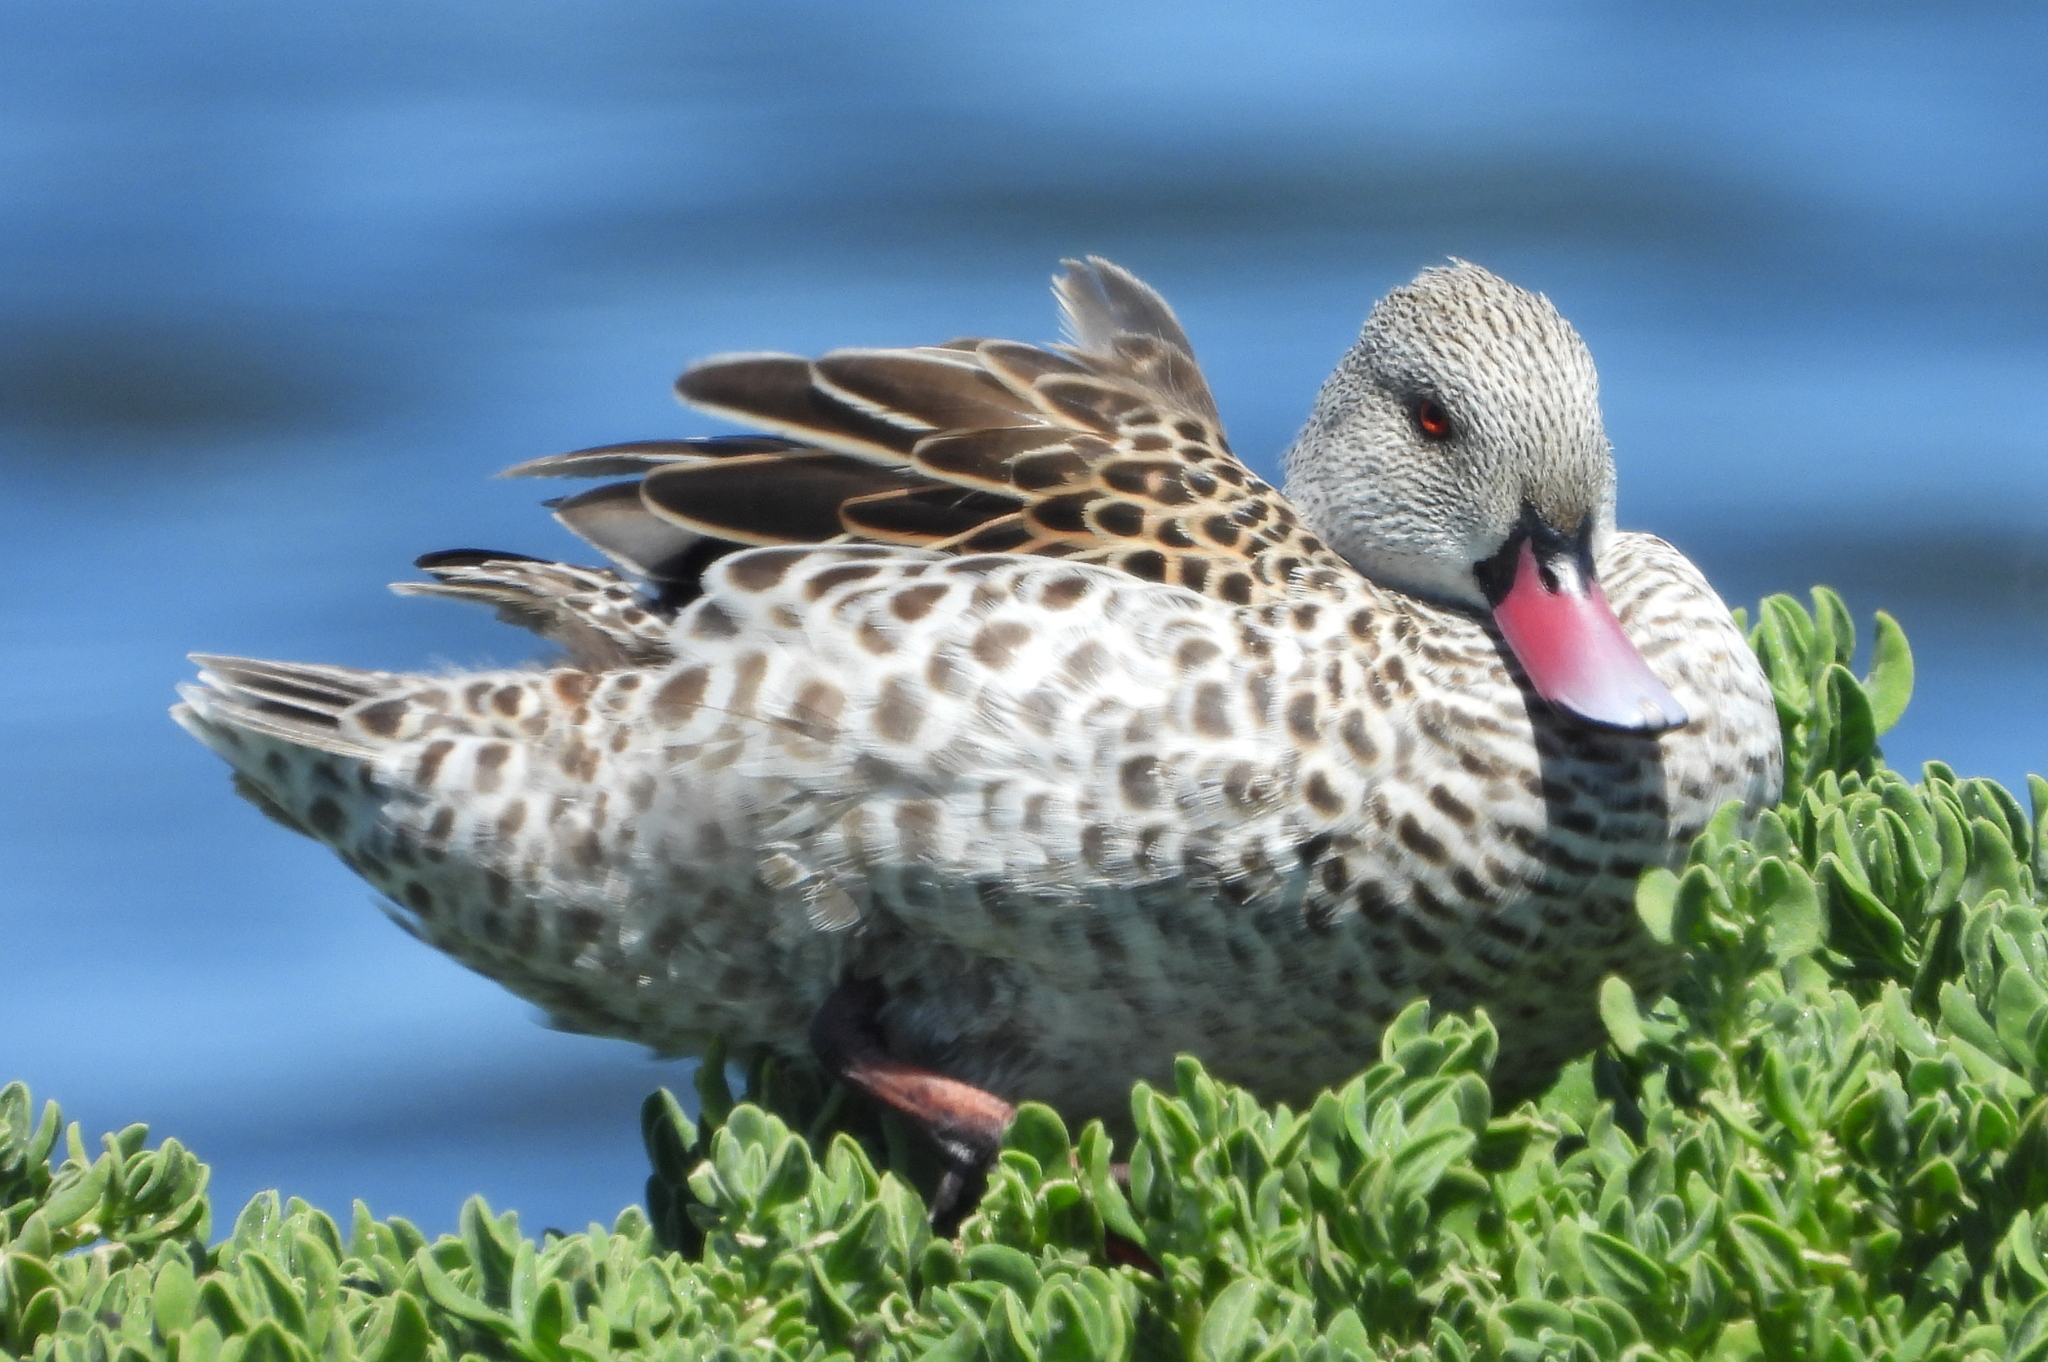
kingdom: Animalia
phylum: Chordata
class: Aves
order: Anseriformes
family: Anatidae
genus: Anas
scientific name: Anas capensis
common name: Cape teal
